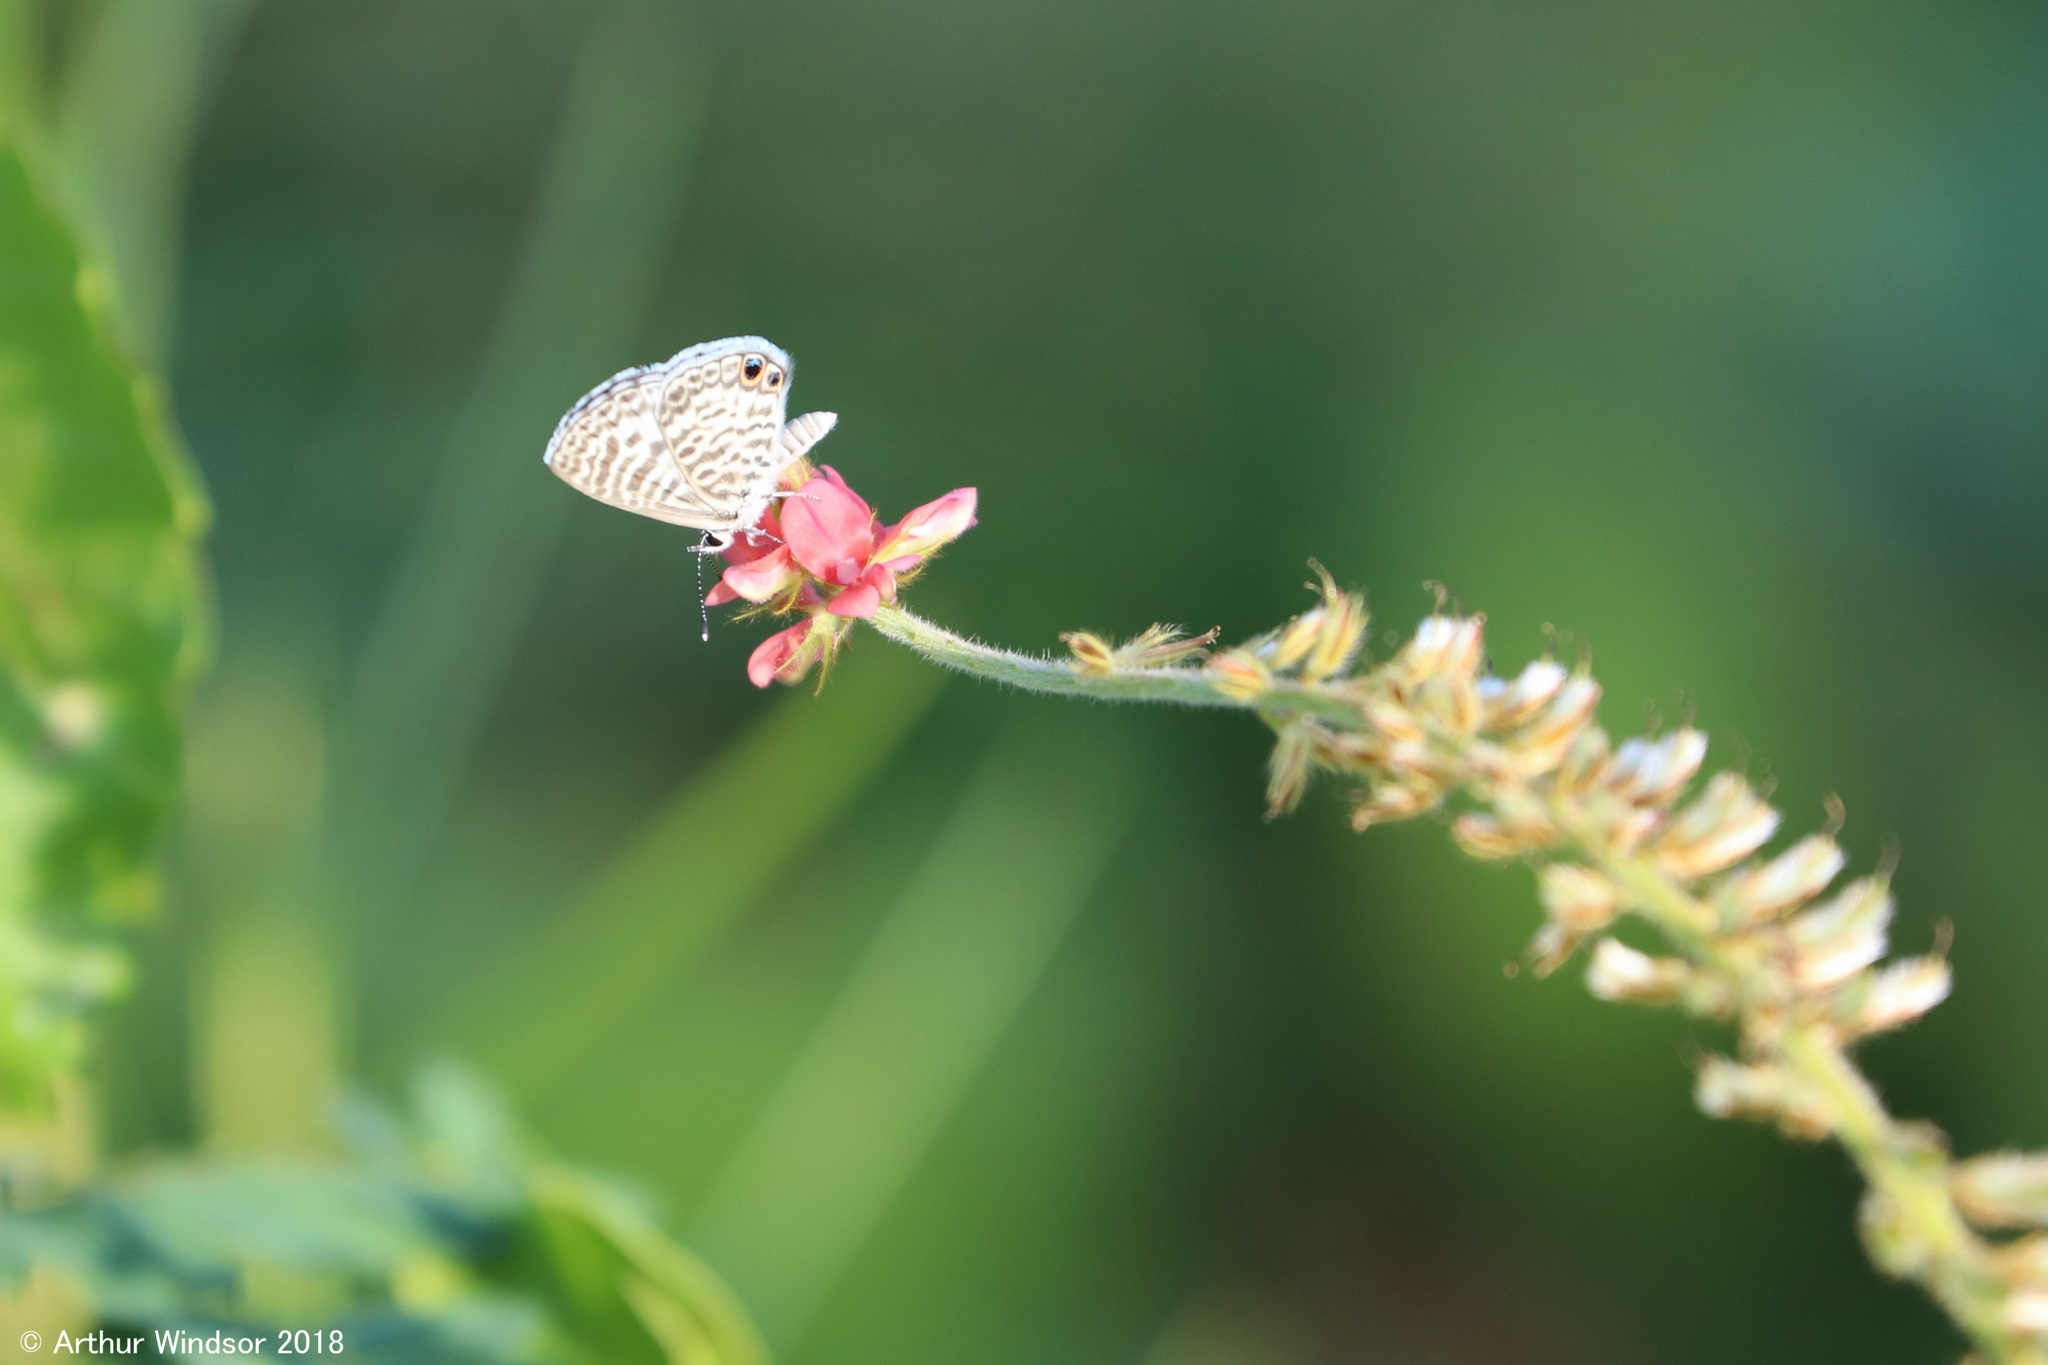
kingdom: Animalia
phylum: Arthropoda
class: Insecta
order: Lepidoptera
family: Lycaenidae
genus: Leptotes
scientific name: Leptotes cassius
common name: Cassius blue
